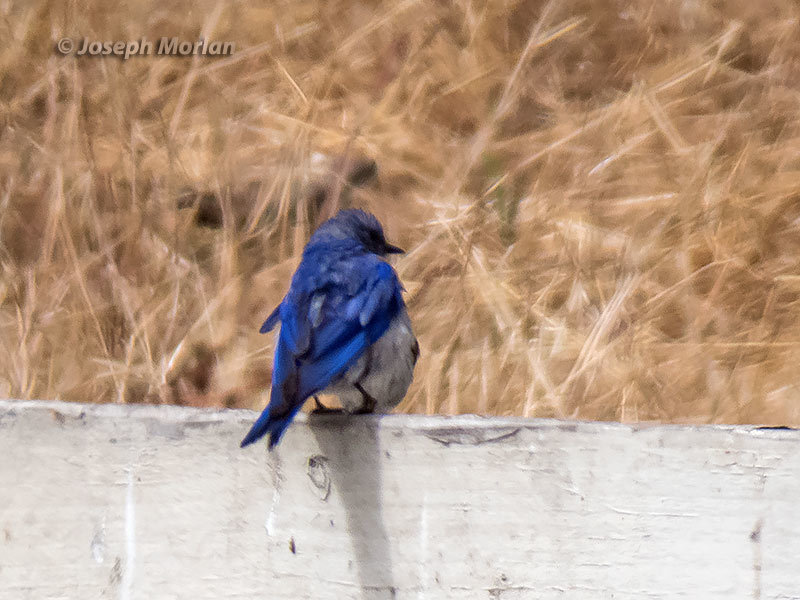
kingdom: Animalia
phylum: Chordata
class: Aves
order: Passeriformes
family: Turdidae
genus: Sialia
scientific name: Sialia mexicana
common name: Western bluebird
